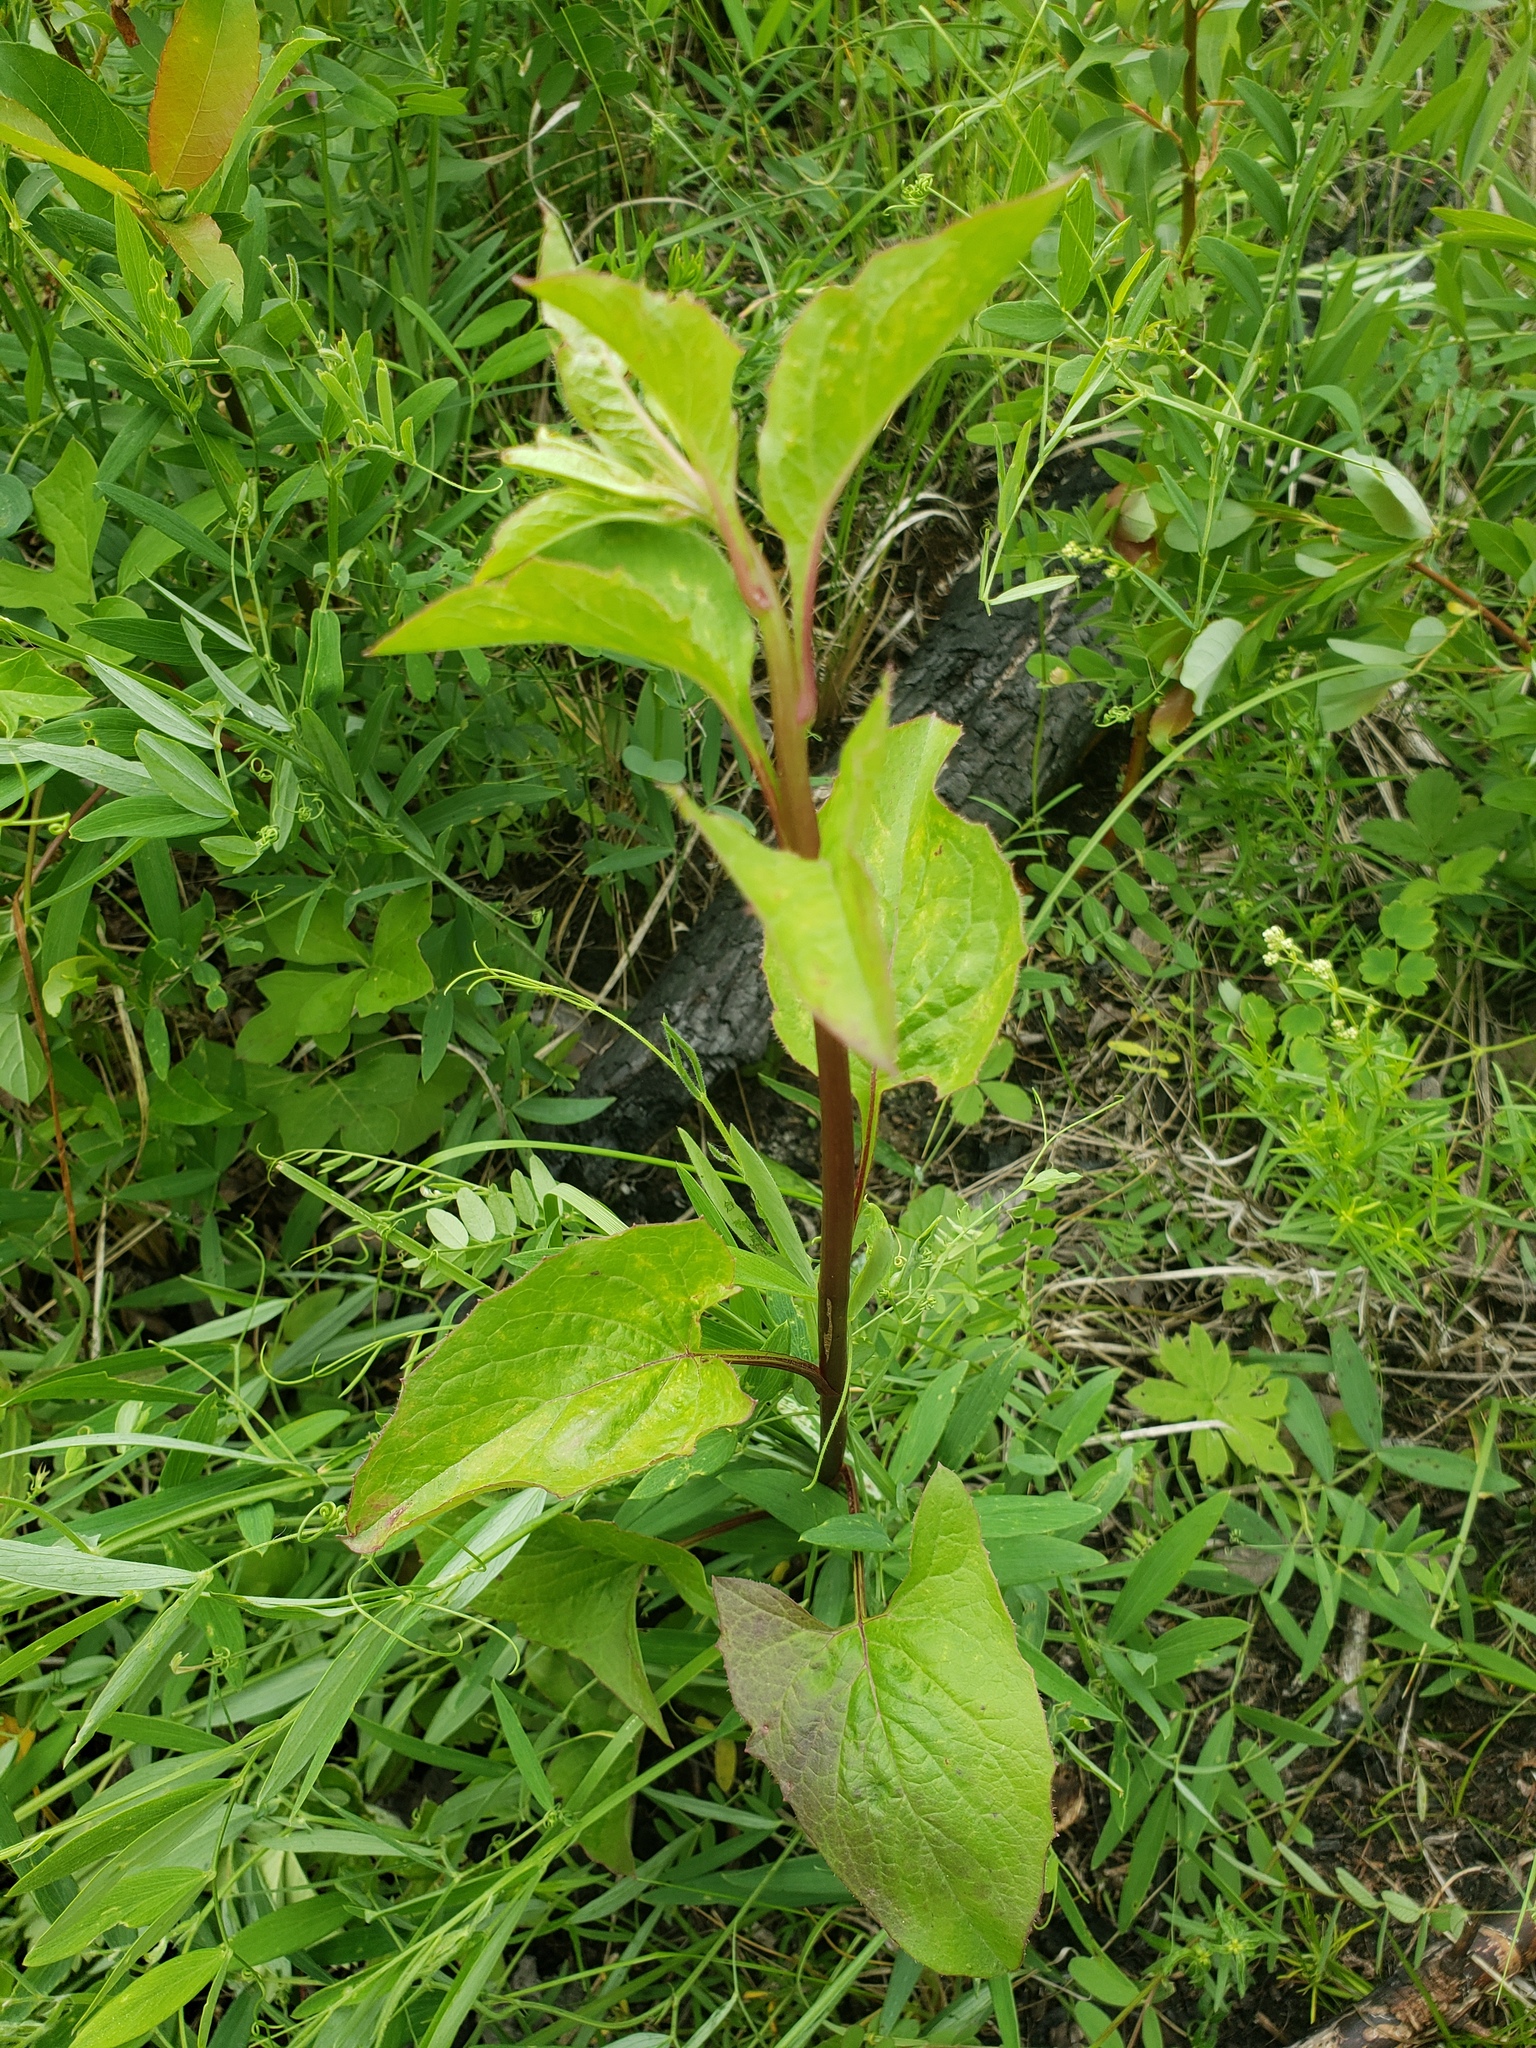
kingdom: Plantae
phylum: Tracheophyta
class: Magnoliopsida
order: Asterales
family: Asteraceae
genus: Nabalus
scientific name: Nabalus albus
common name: White rattlesnakeroot
